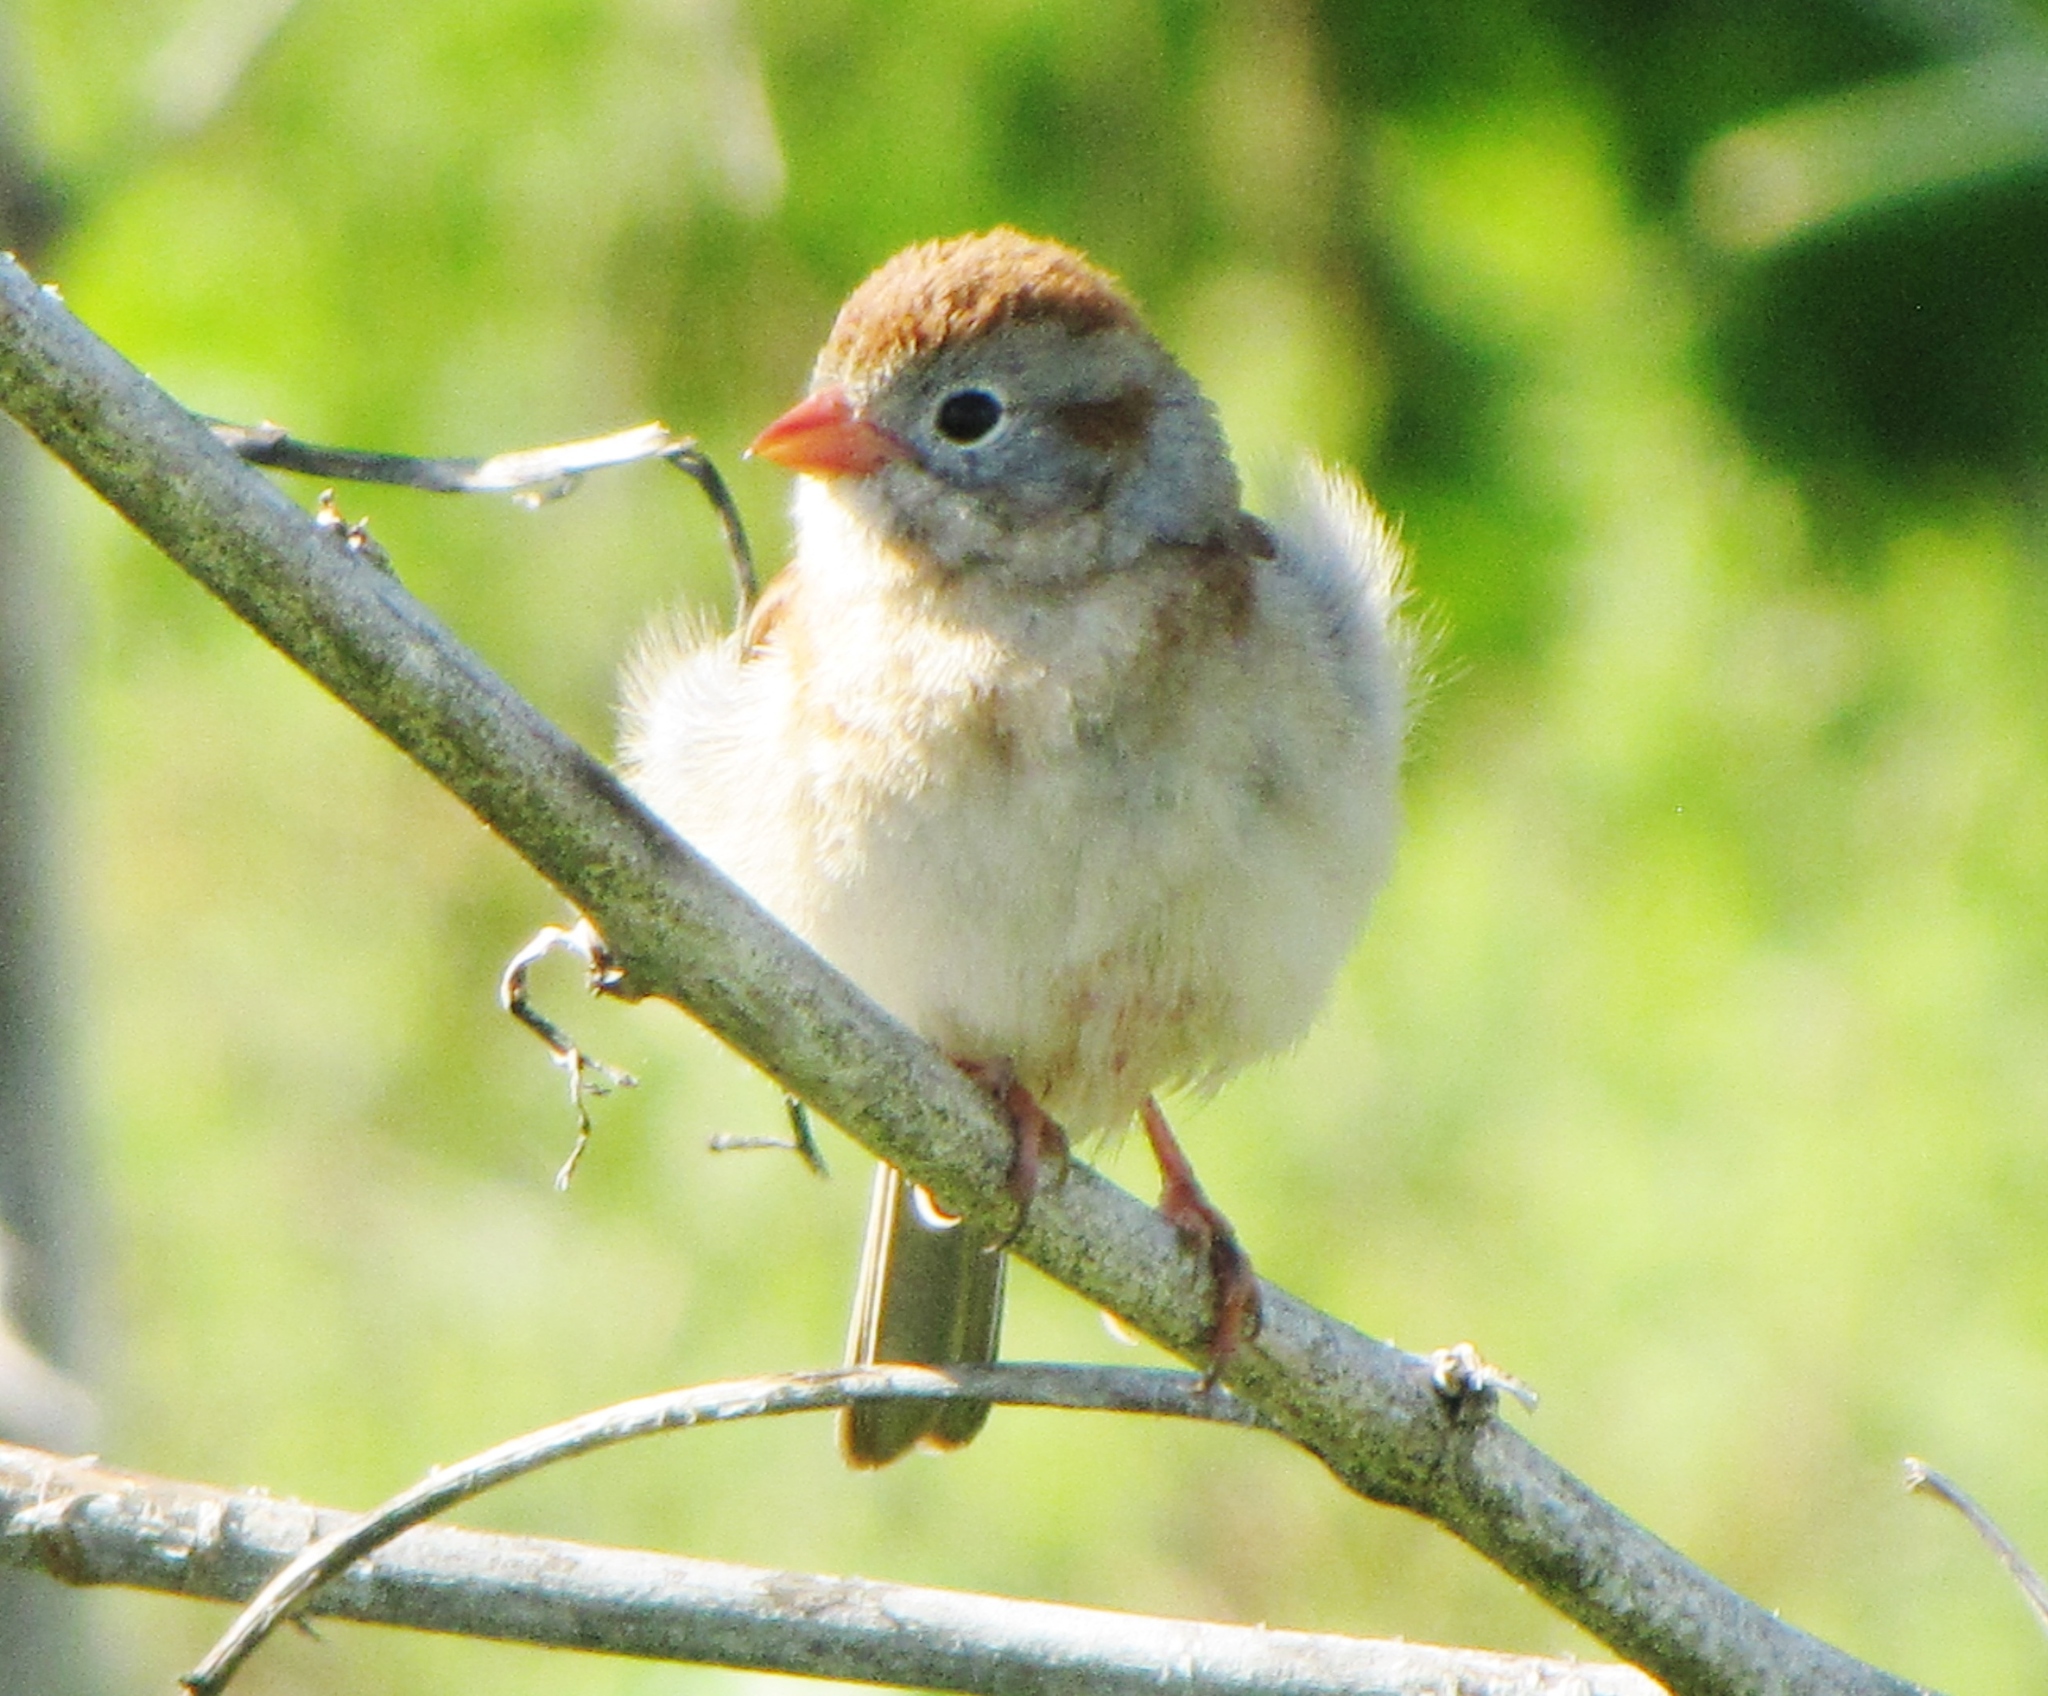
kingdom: Animalia
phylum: Chordata
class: Aves
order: Passeriformes
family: Passerellidae
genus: Spizella
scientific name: Spizella pusilla
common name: Field sparrow
